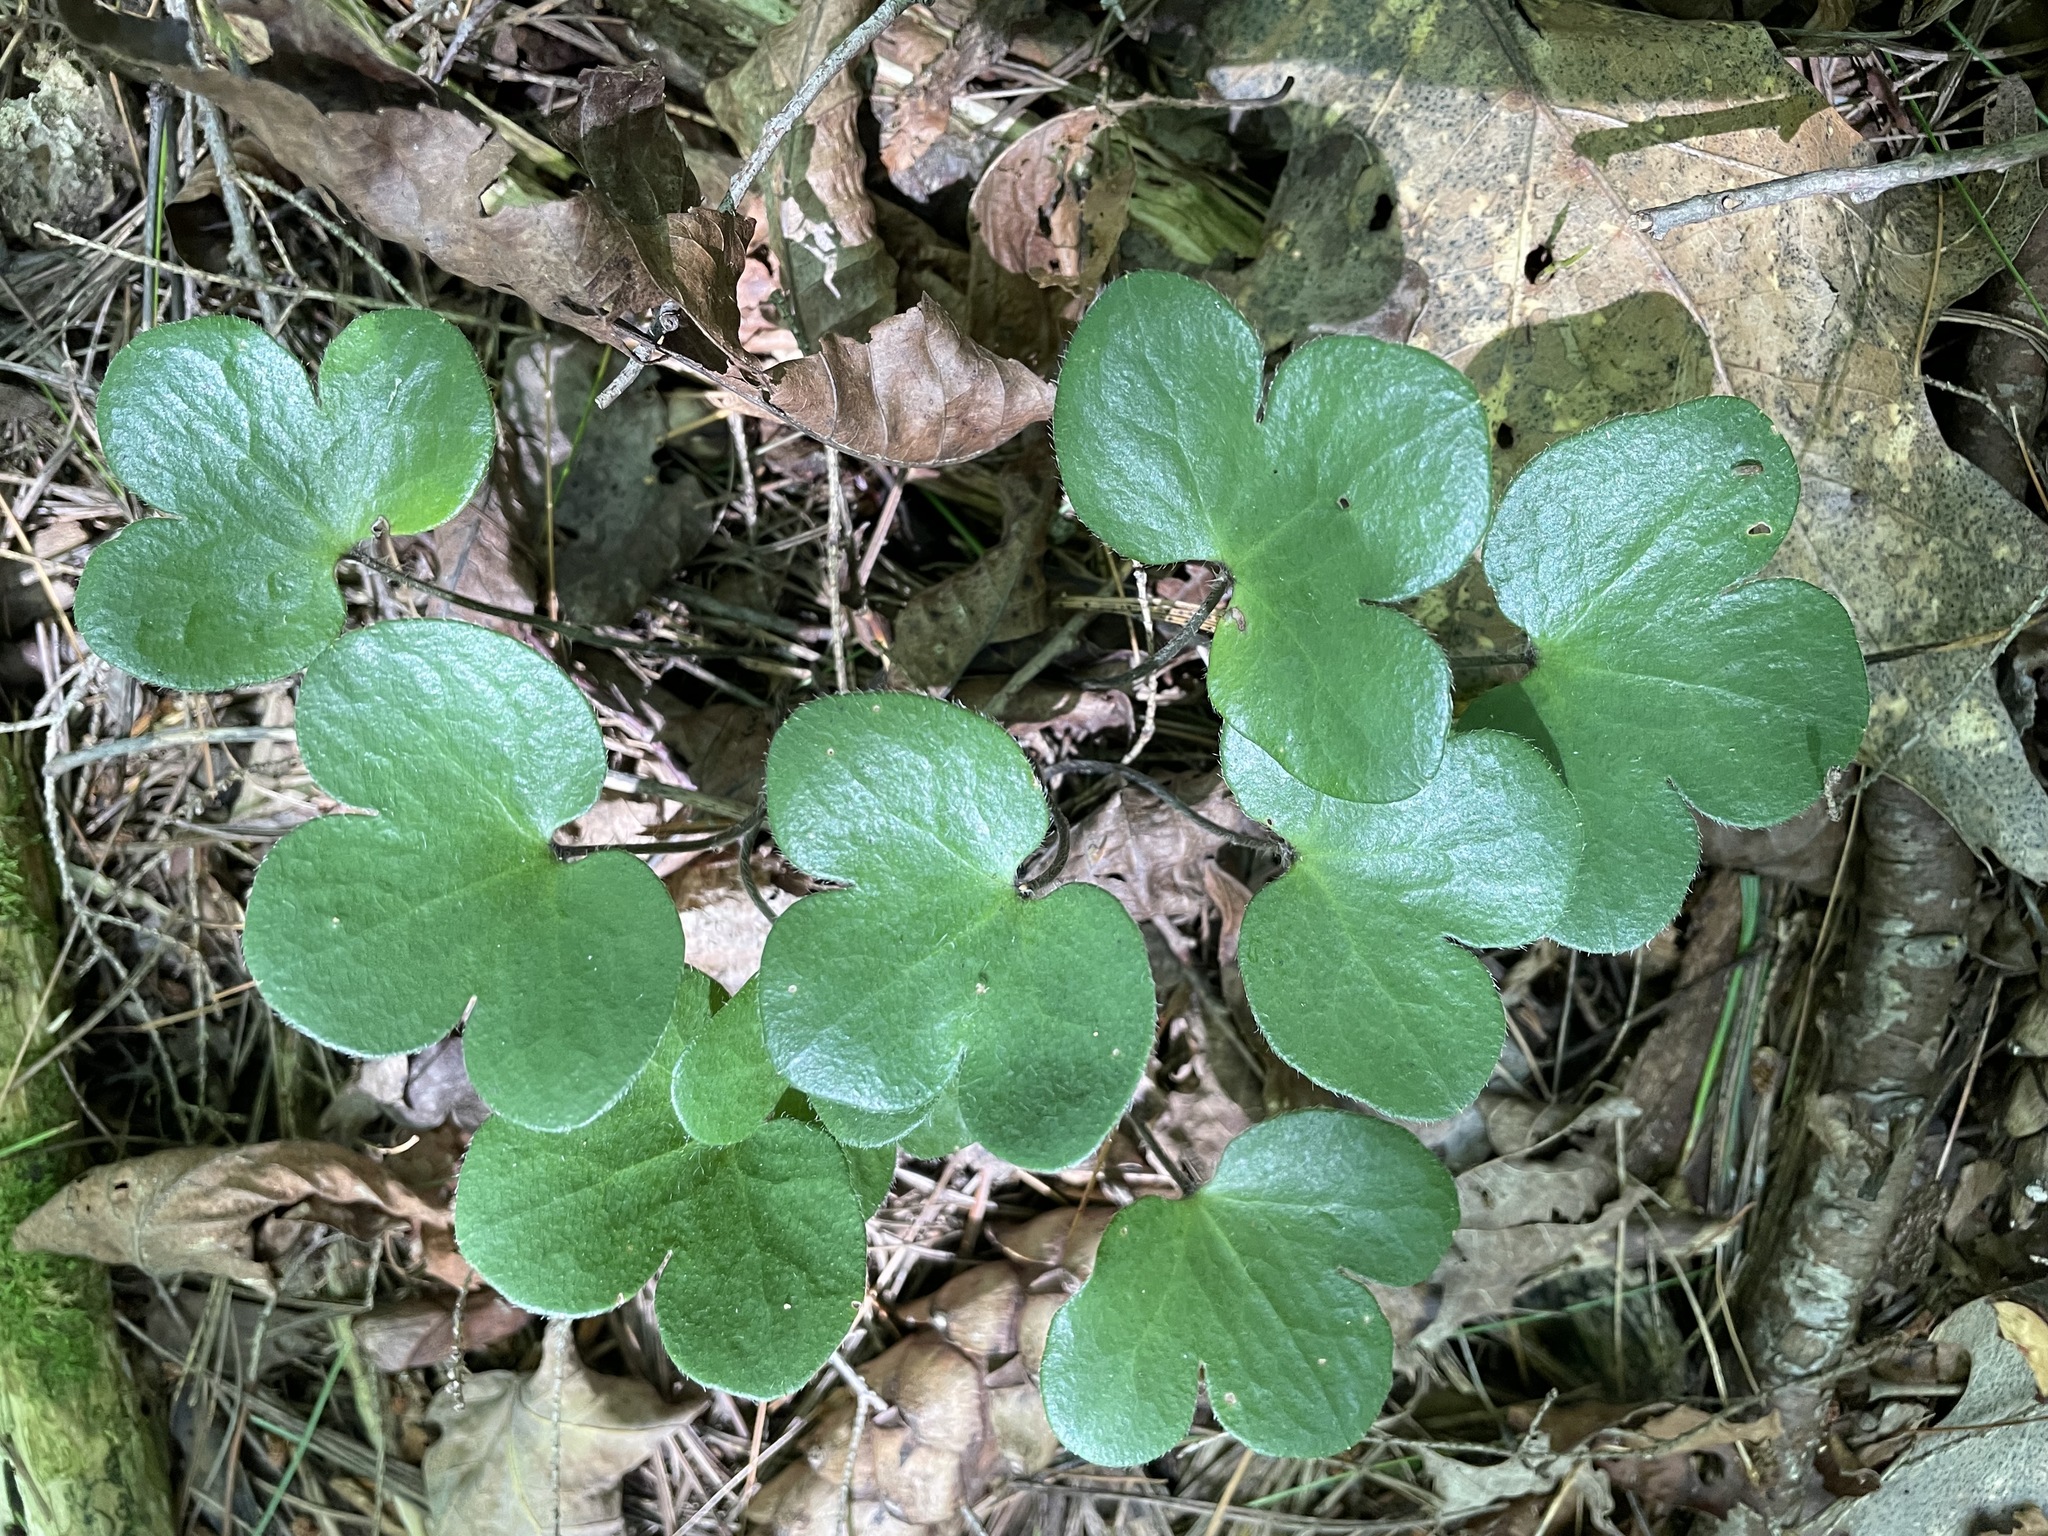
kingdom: Plantae
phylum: Tracheophyta
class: Magnoliopsida
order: Ranunculales
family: Ranunculaceae
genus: Hepatica
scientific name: Hepatica americana
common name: American hepatica
